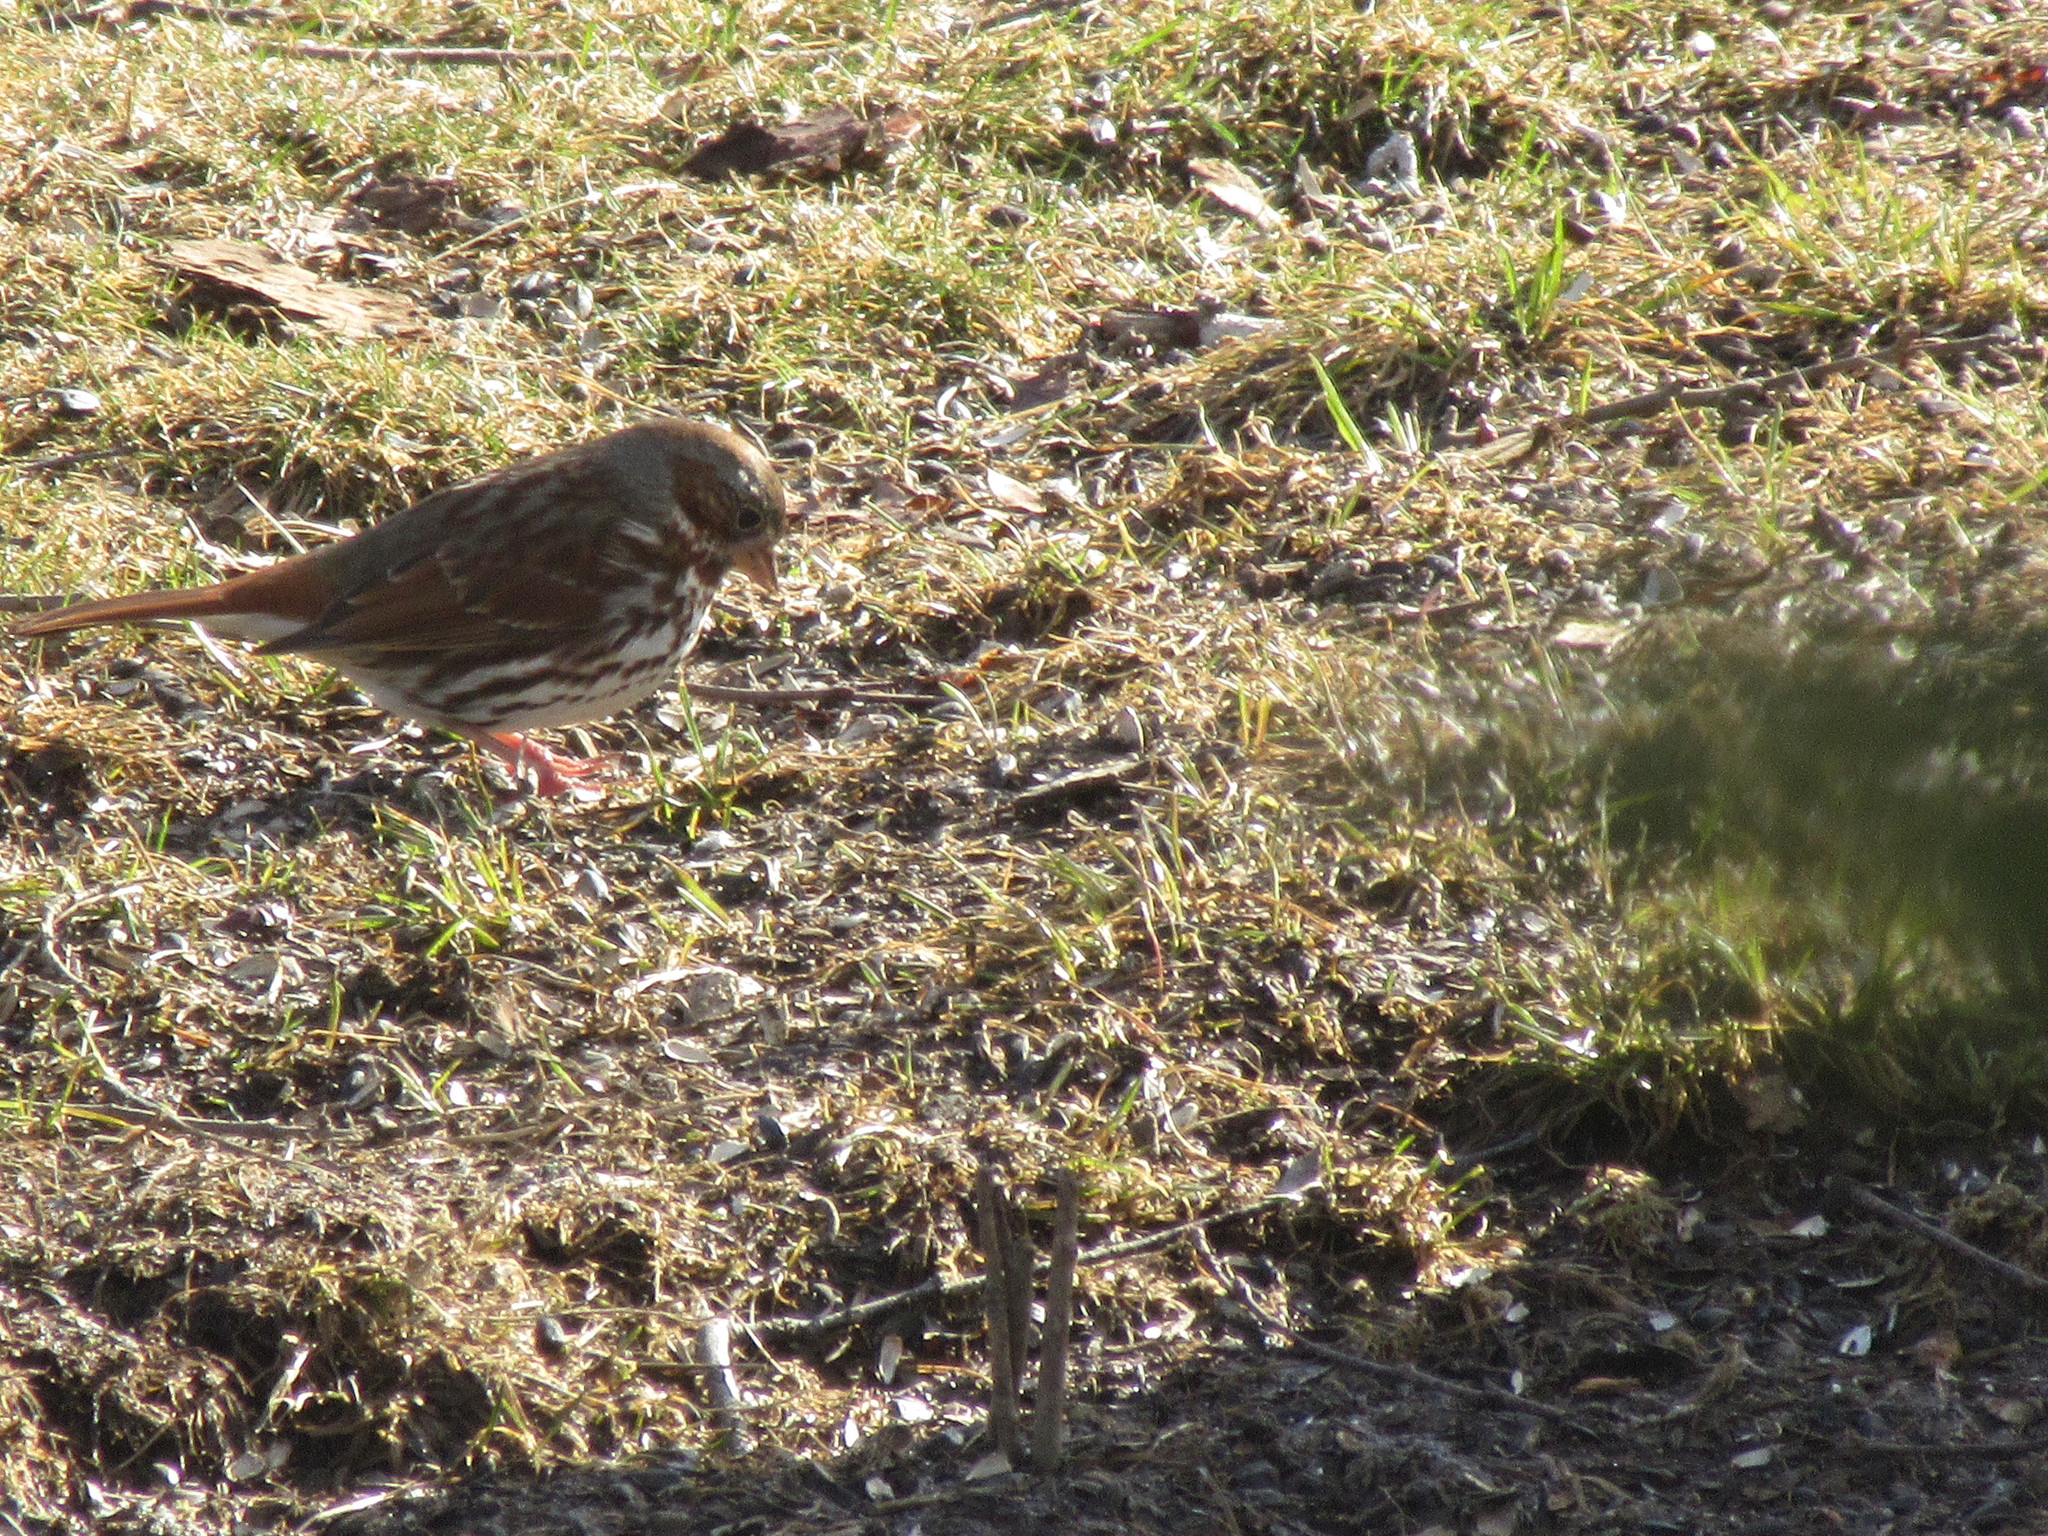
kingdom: Animalia
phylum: Chordata
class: Aves
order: Passeriformes
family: Passerellidae
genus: Passerella
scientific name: Passerella iliaca
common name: Fox sparrow
